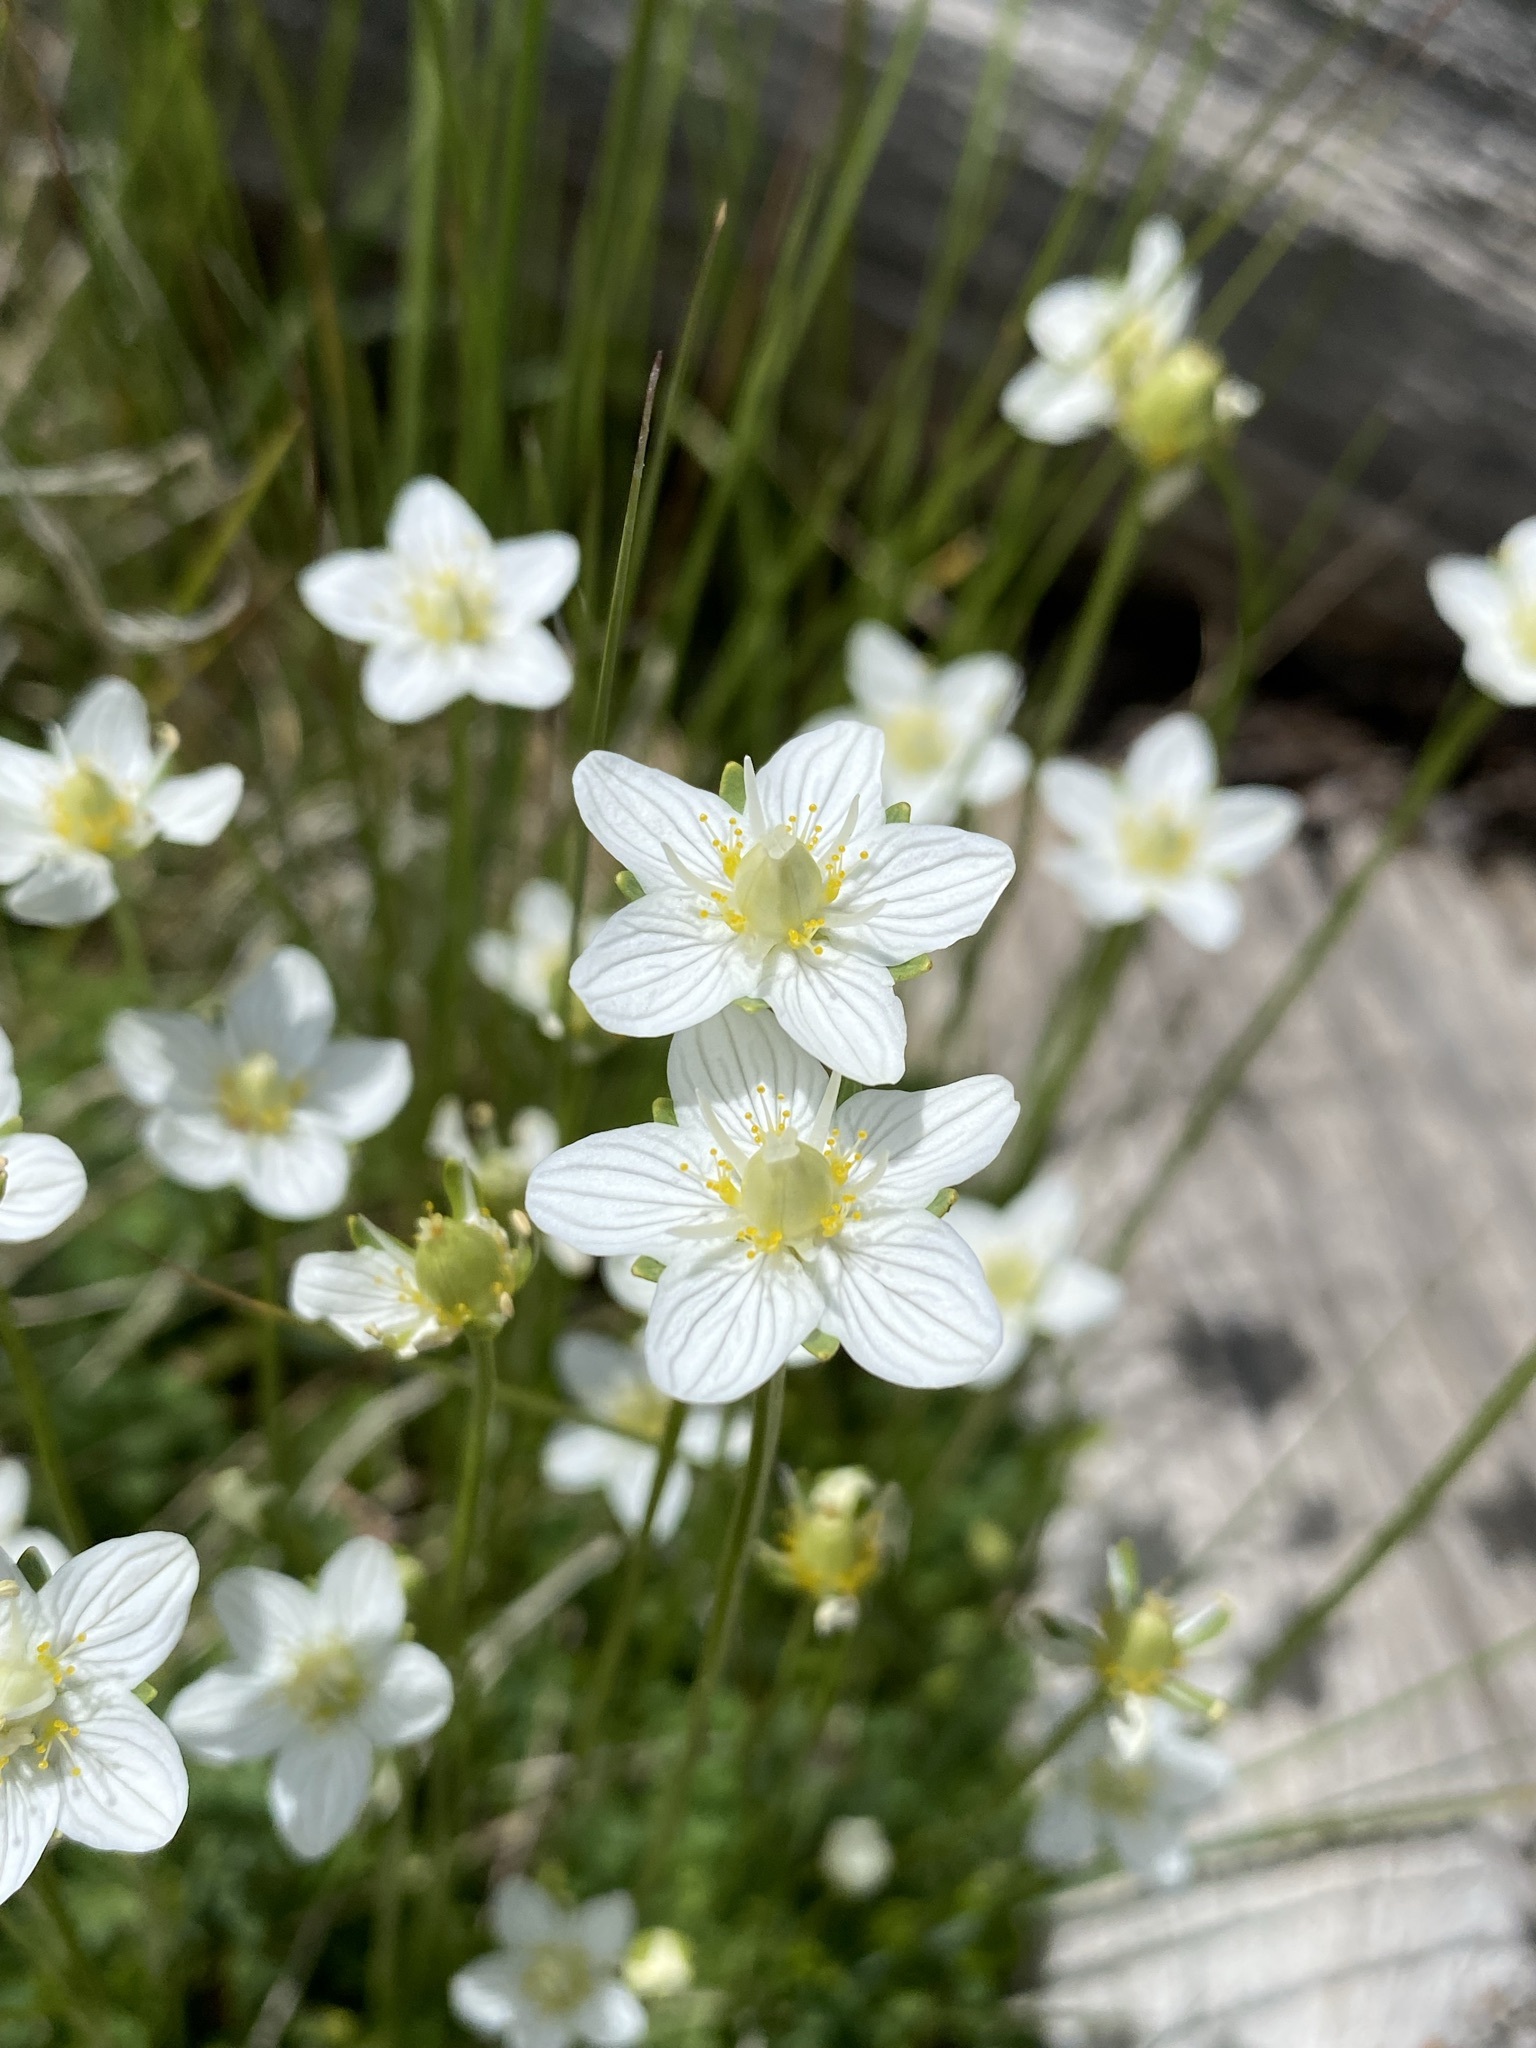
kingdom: Plantae
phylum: Tracheophyta
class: Magnoliopsida
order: Celastrales
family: Parnassiaceae
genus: Parnassia
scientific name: Parnassia parviflora
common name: Small-flowered grass-of-parnassus
